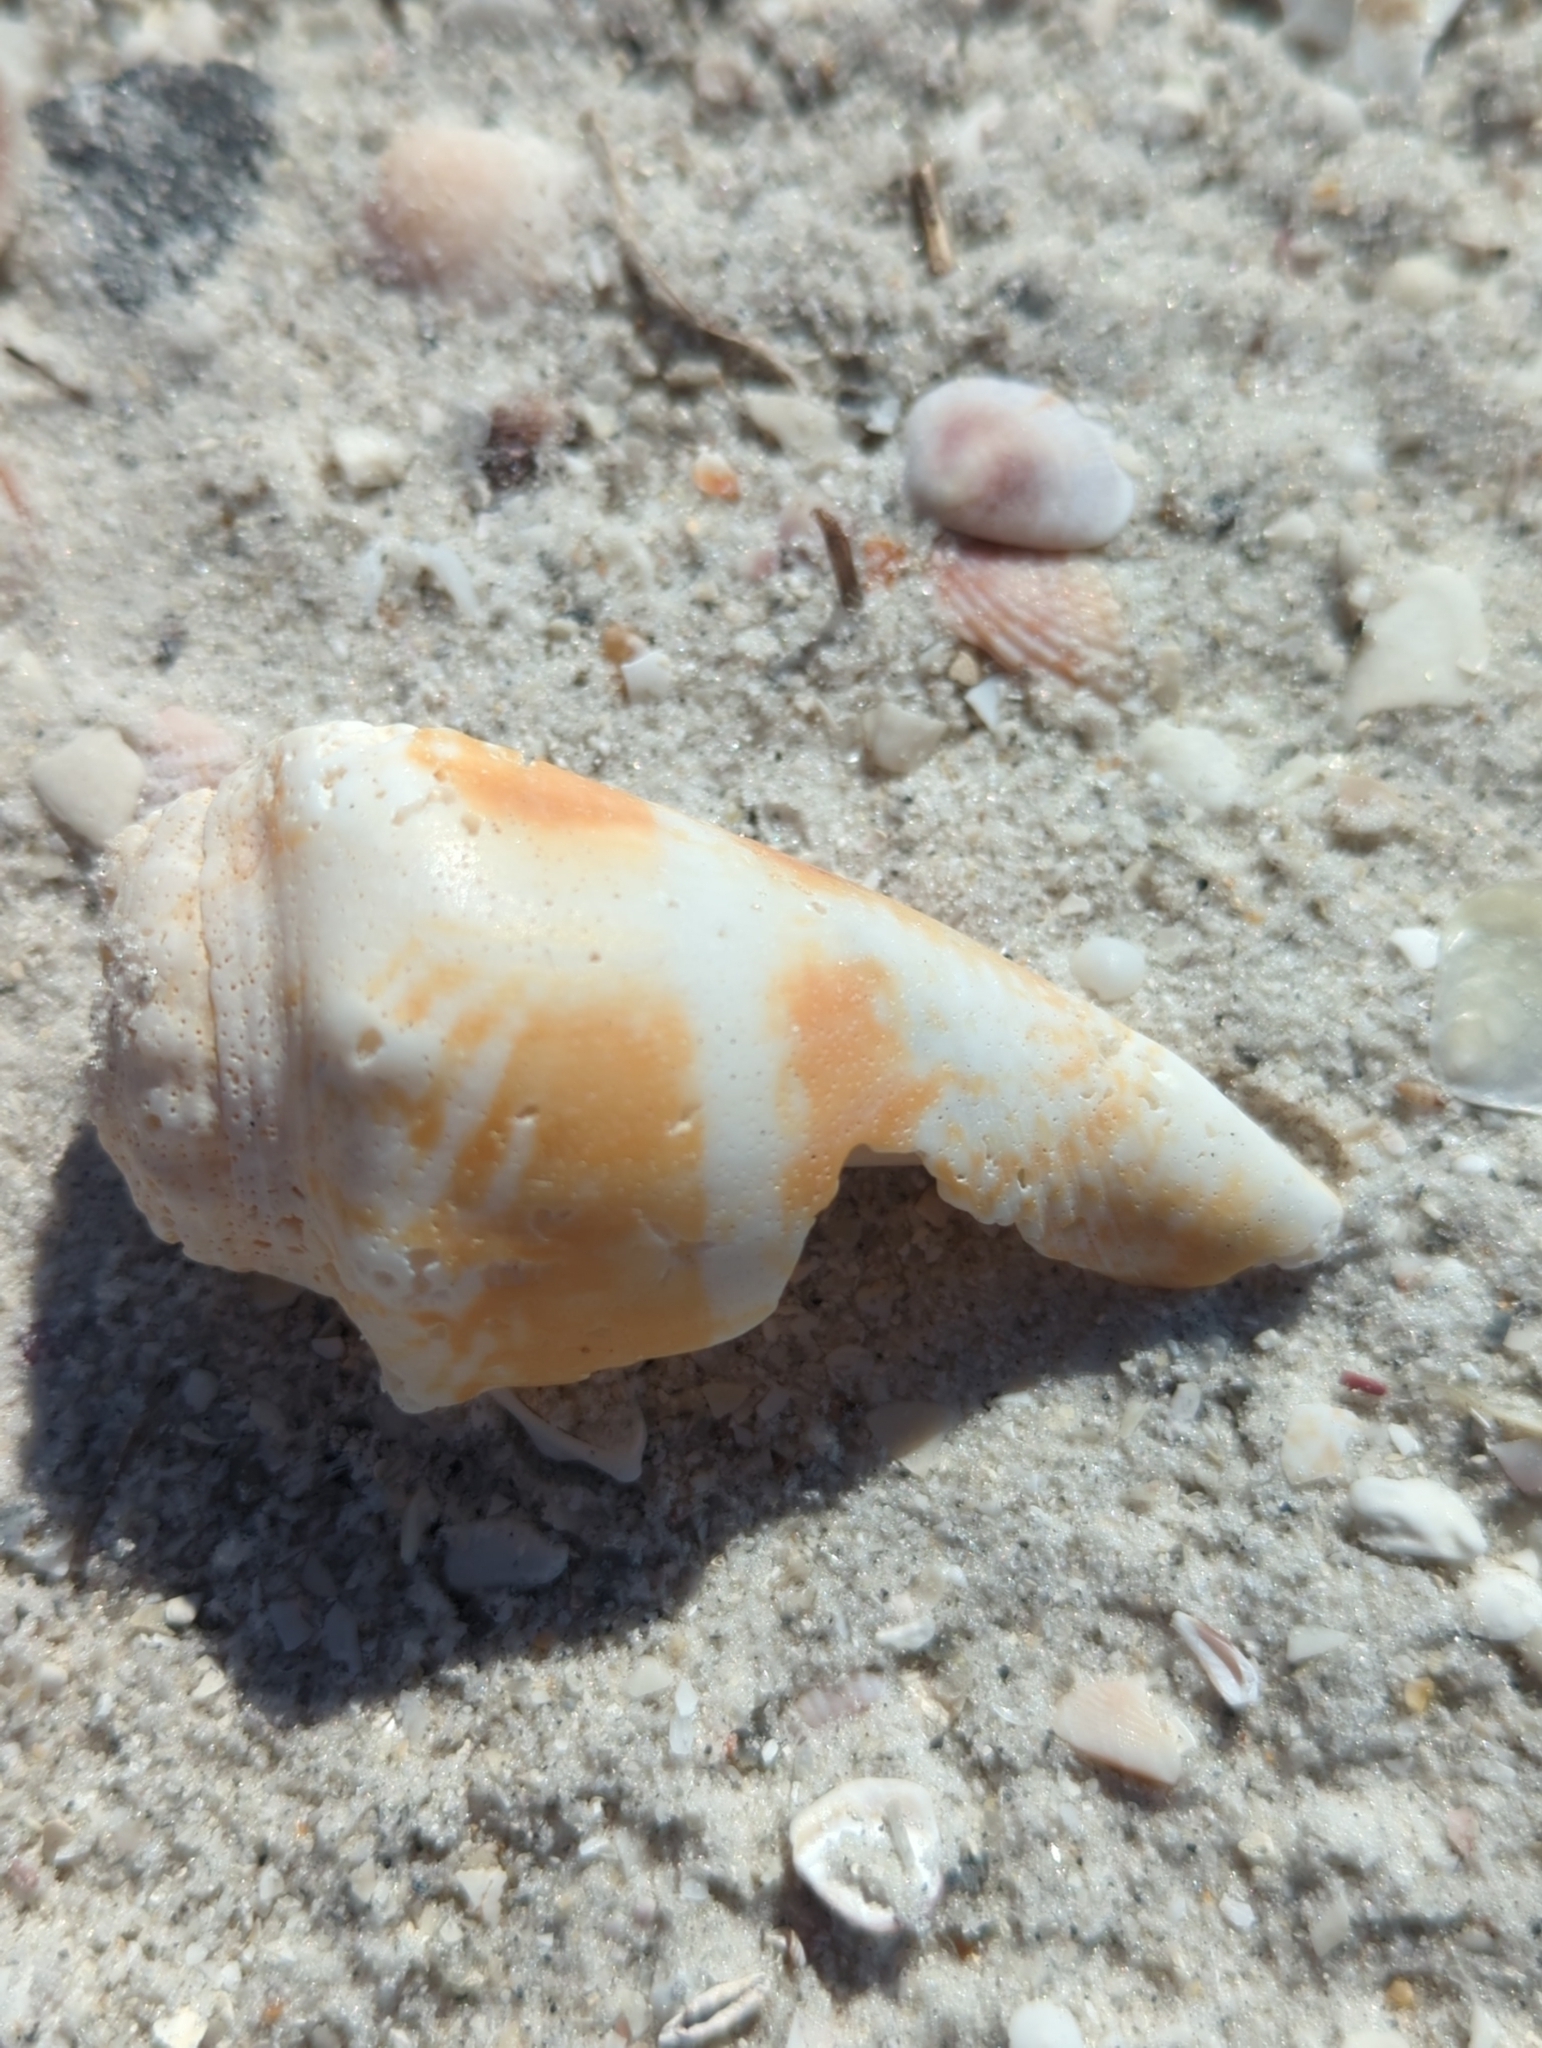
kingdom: Animalia
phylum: Mollusca
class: Gastropoda
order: Littorinimorpha
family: Strombidae
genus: Strombus
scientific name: Strombus alatus
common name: Florida fighting conch
